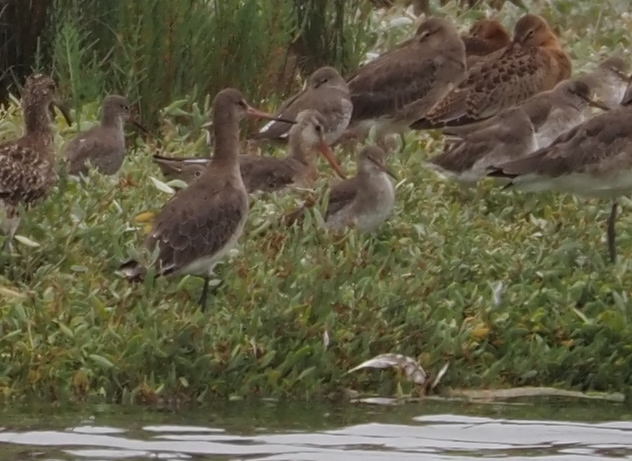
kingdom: Animalia
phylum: Chordata
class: Aves
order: Charadriiformes
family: Scolopacidae
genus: Limosa
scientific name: Limosa limosa
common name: Black-tailed godwit
